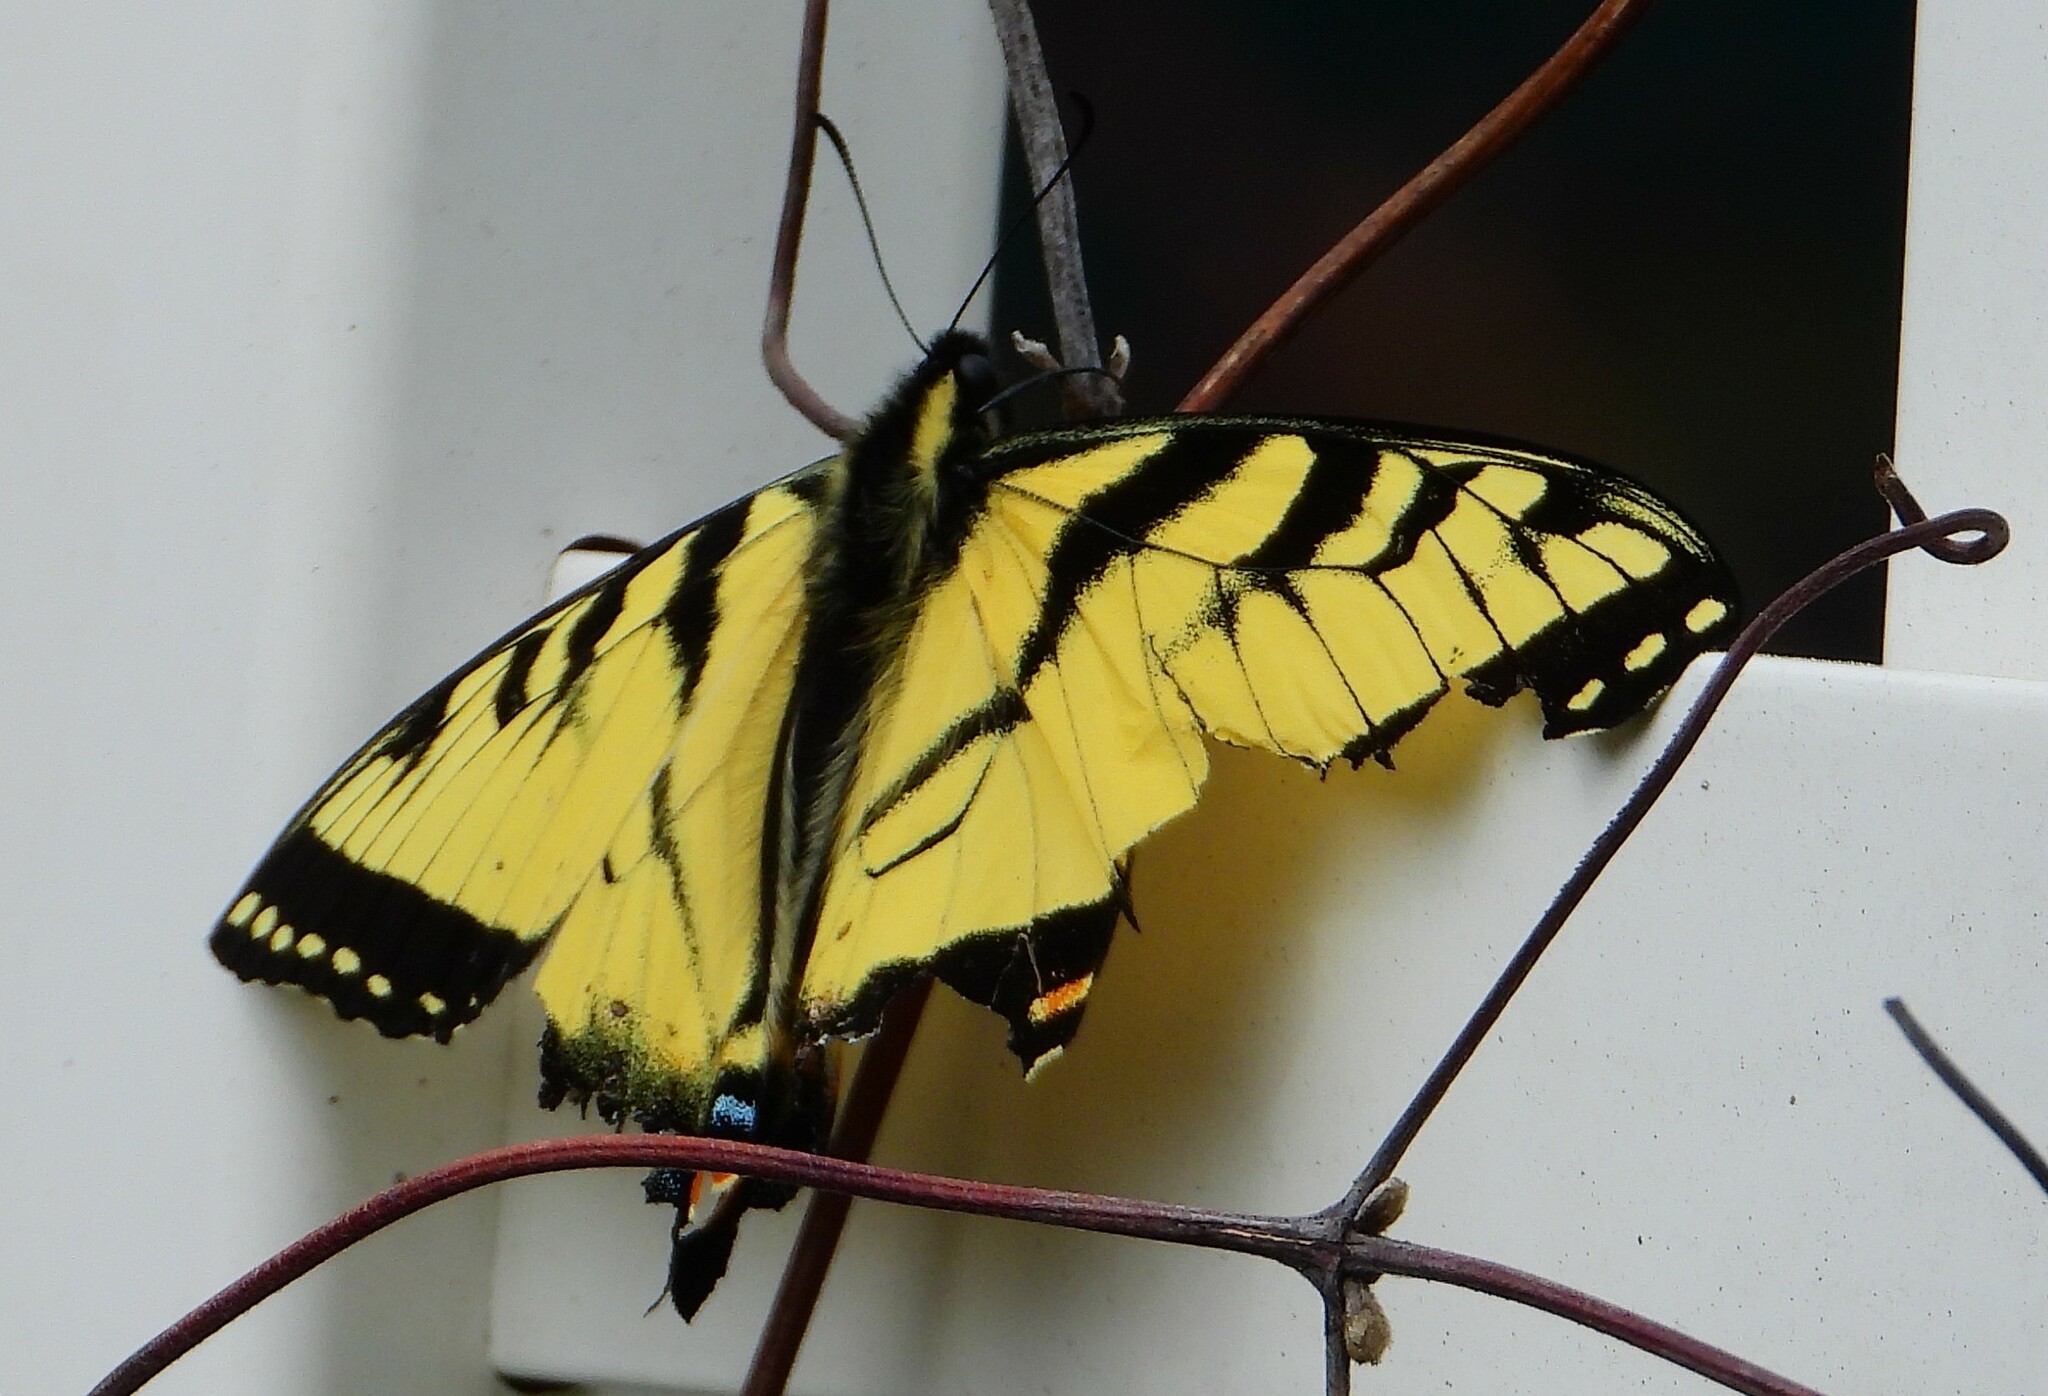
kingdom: Animalia
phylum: Arthropoda
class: Insecta
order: Lepidoptera
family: Papilionidae
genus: Papilio
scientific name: Papilio glaucus
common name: Tiger swallowtail
